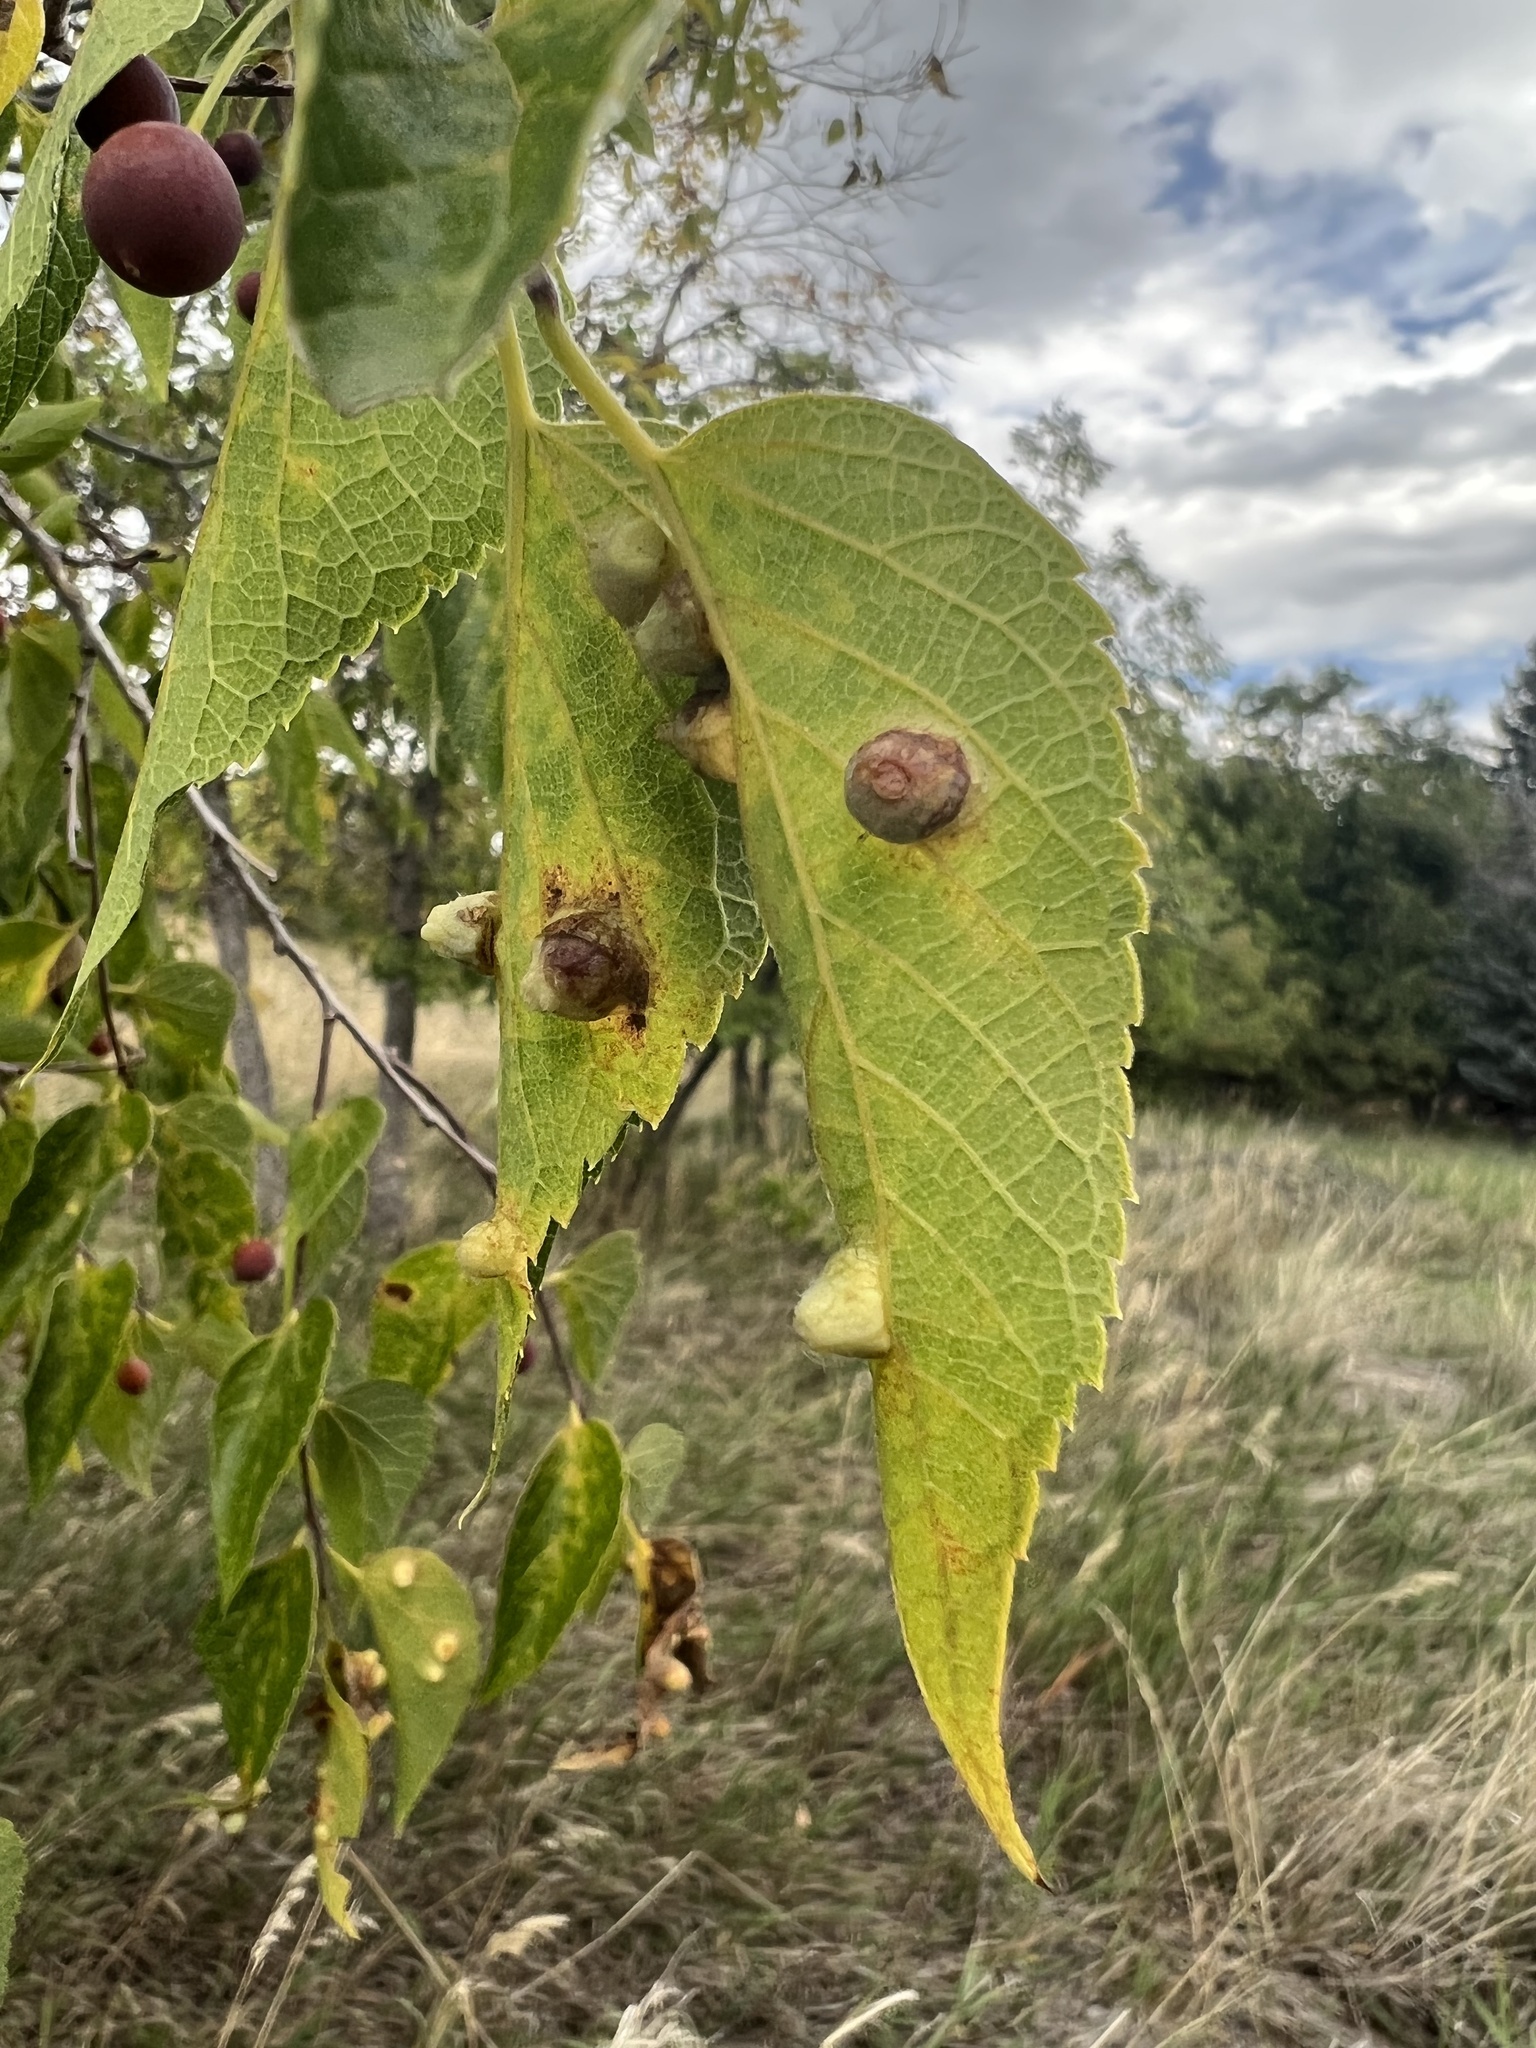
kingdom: Animalia
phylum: Arthropoda
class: Insecta
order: Hemiptera
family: Aphalaridae
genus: Pachypsylla
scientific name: Pachypsylla celtidismamma
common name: Hackberry nipplegall psyllid
